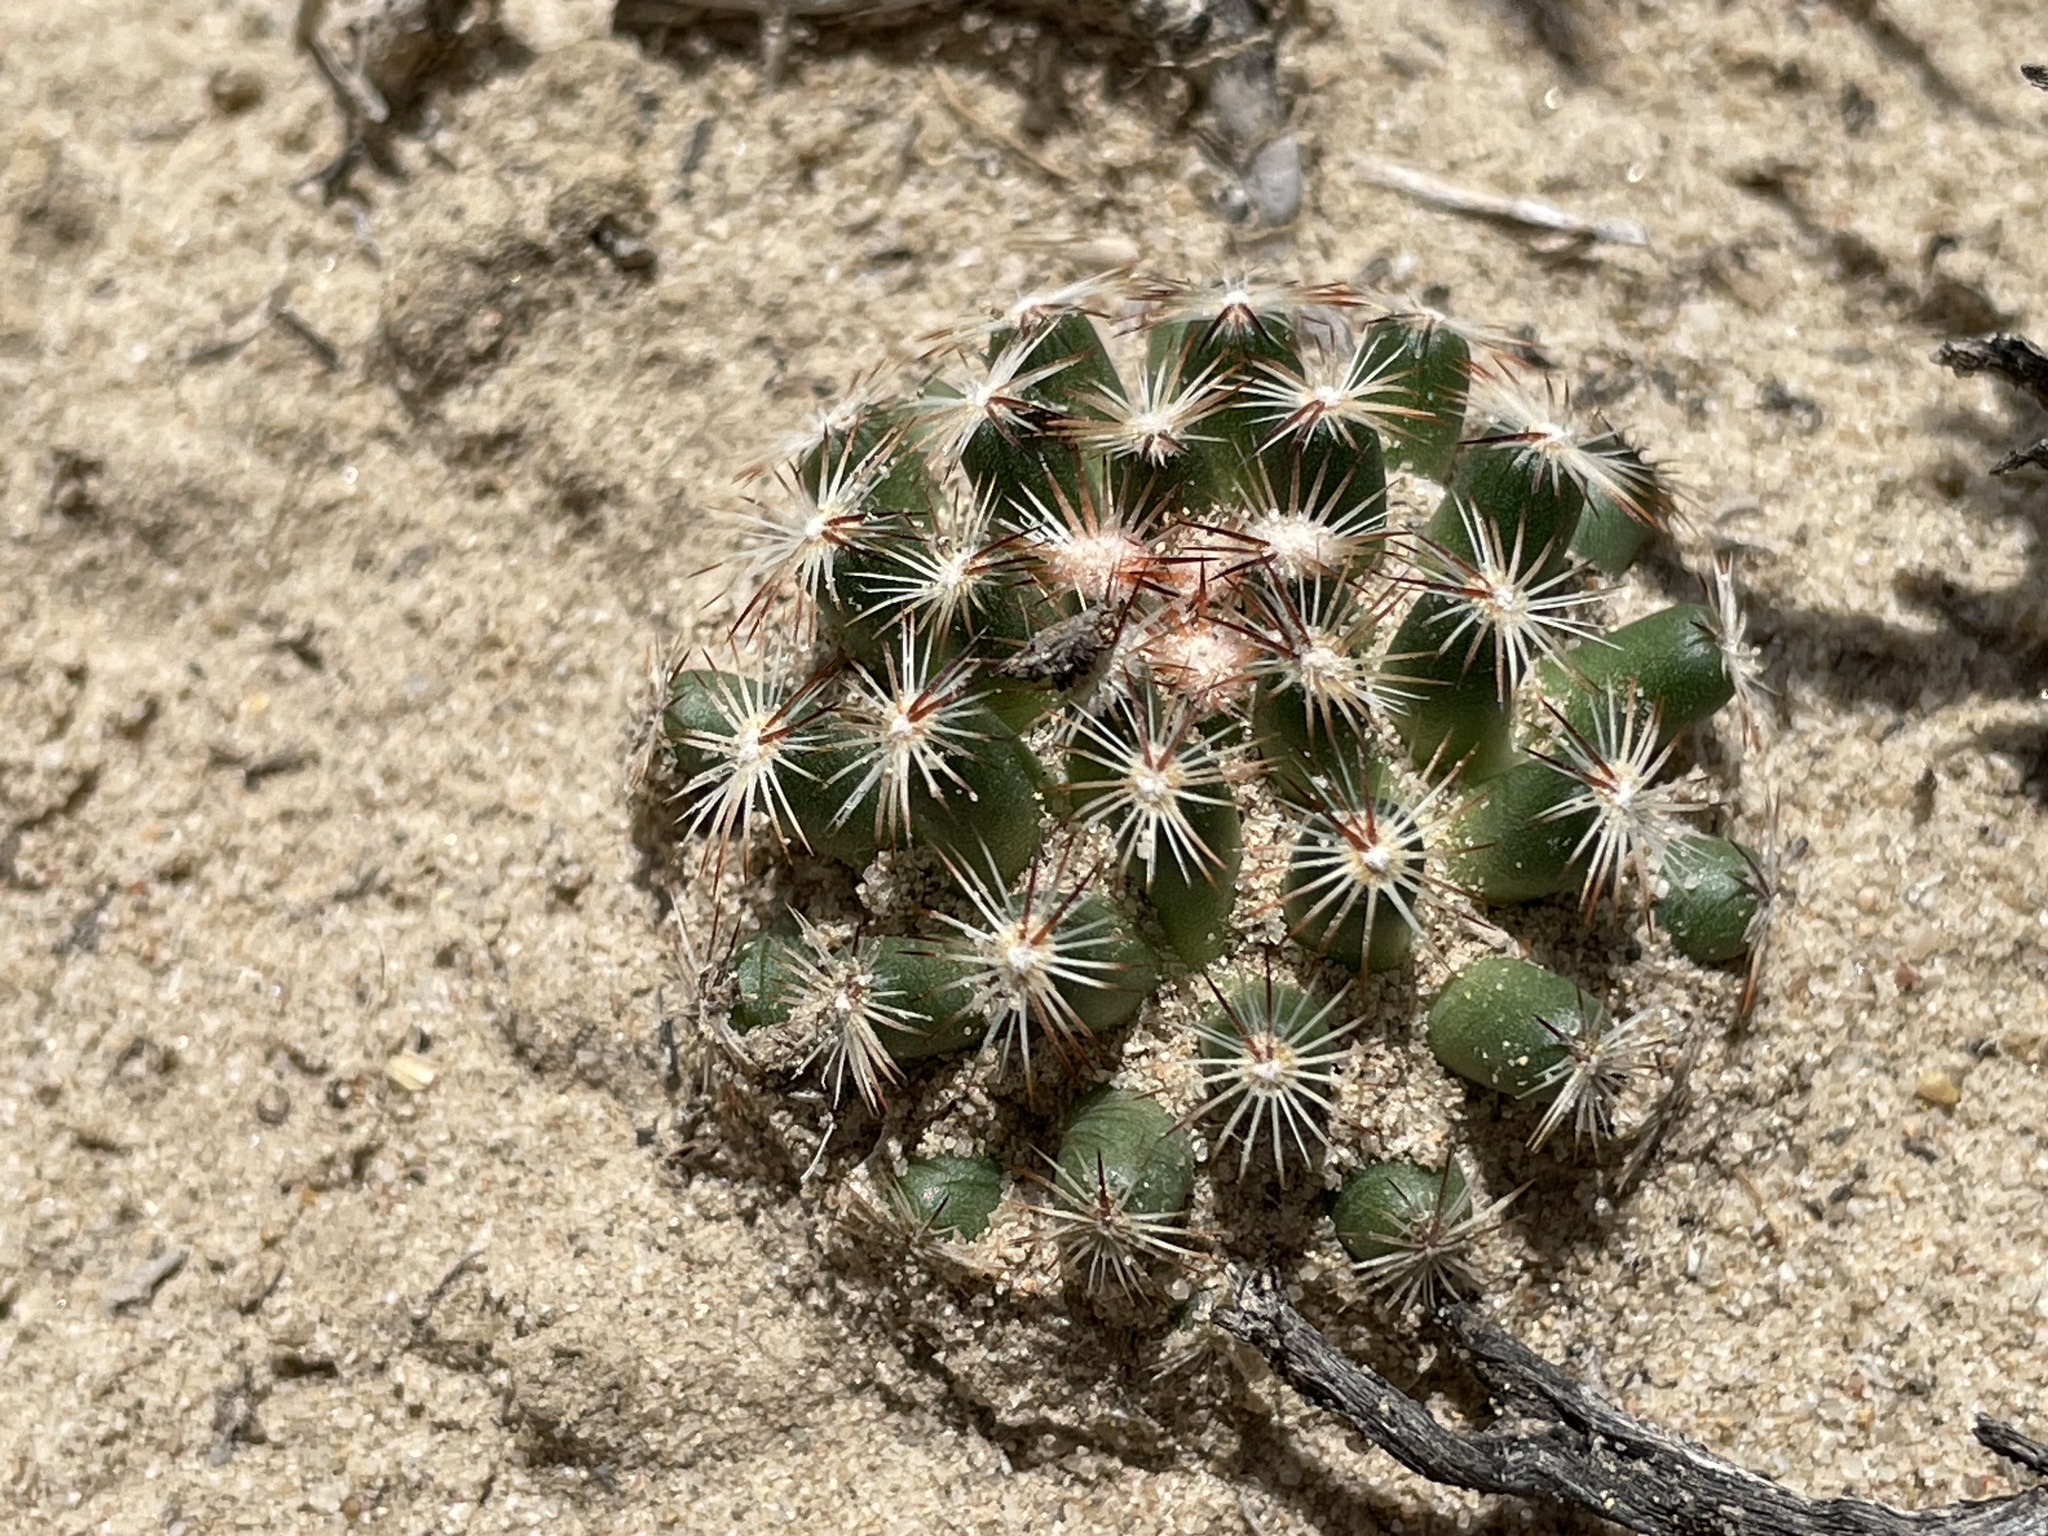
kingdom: Plantae
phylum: Tracheophyta
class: Magnoliopsida
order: Caryophyllales
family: Cactaceae
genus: Pelecyphora
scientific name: Pelecyphora vivipara
